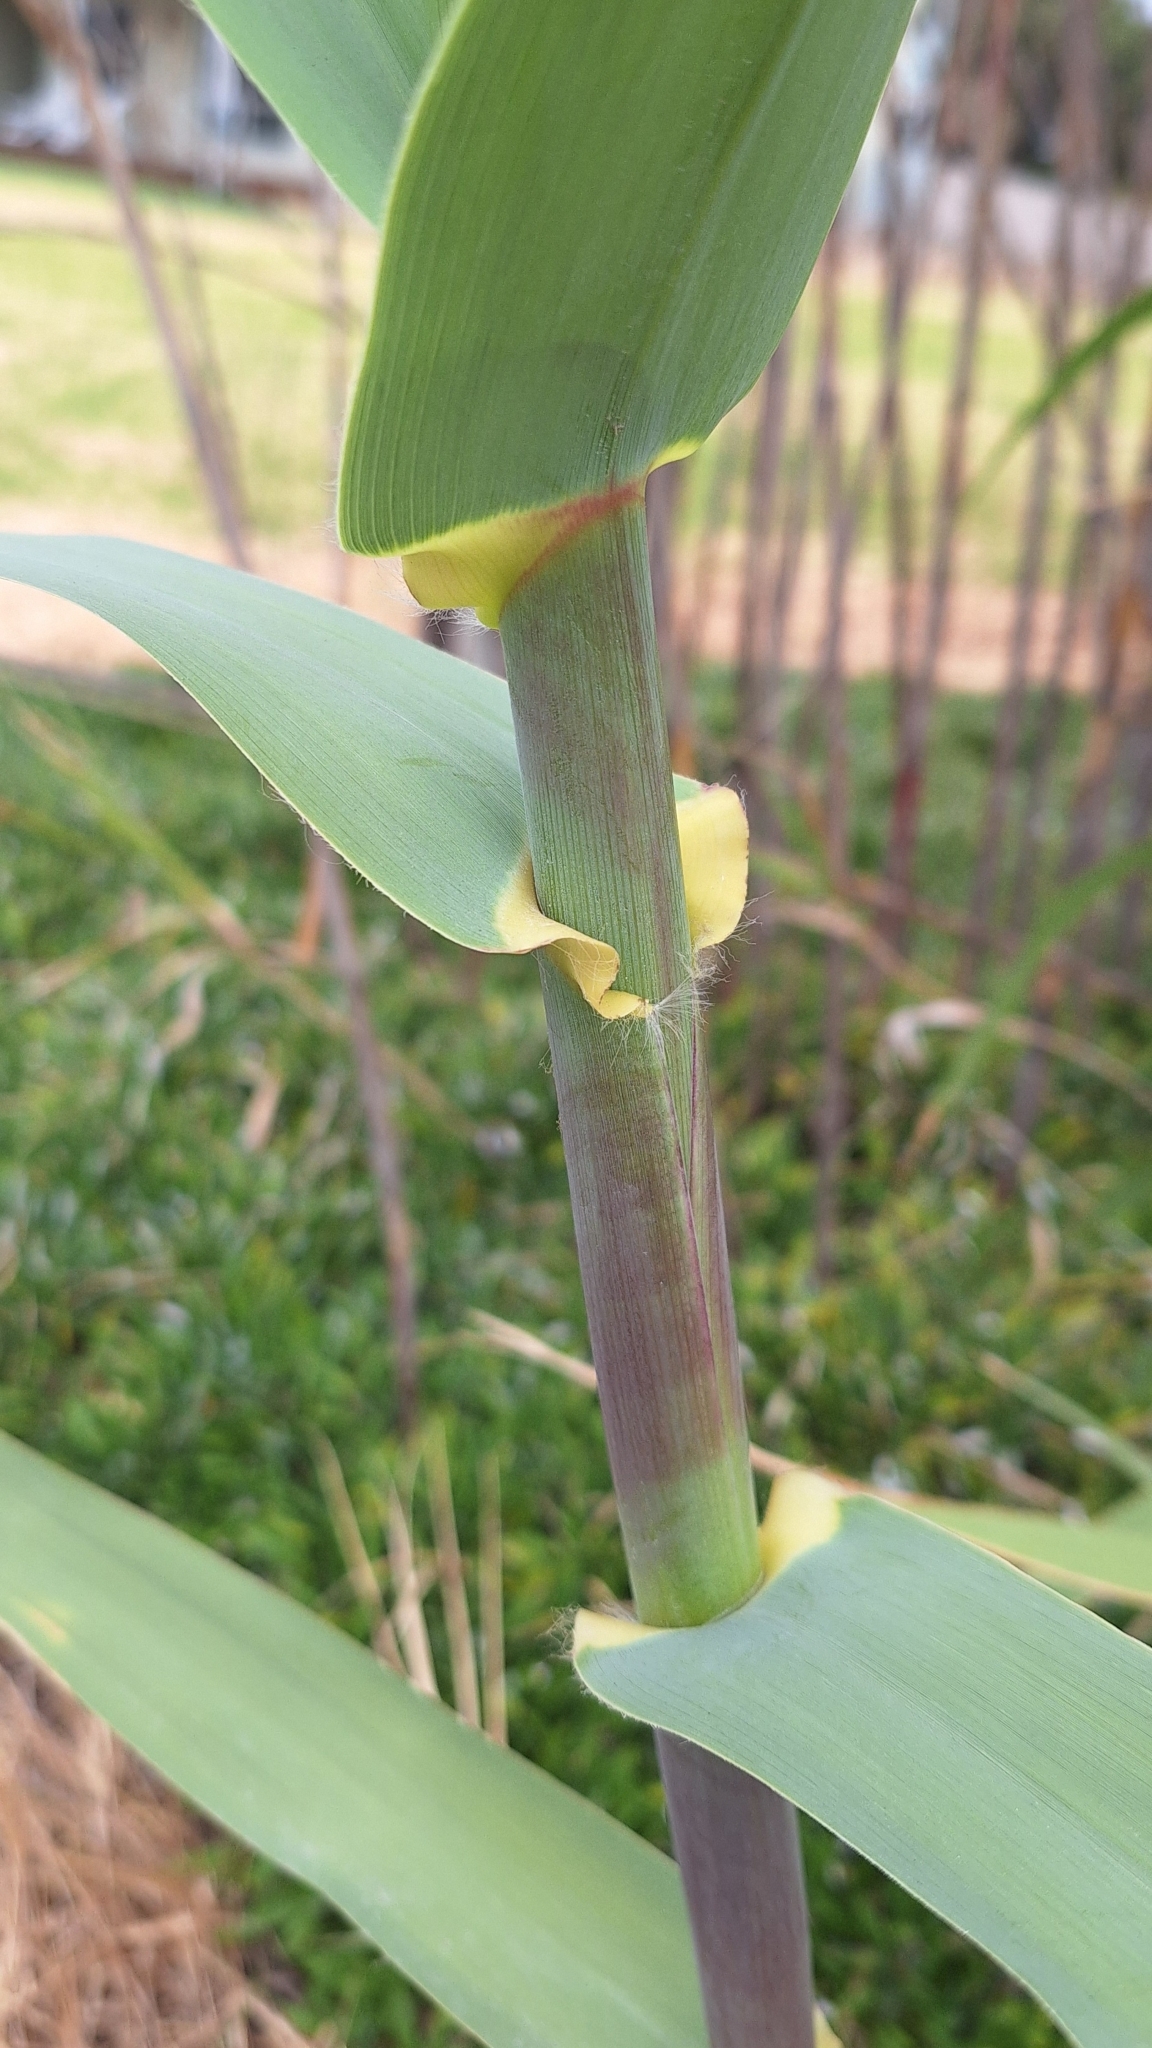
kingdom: Plantae
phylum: Tracheophyta
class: Liliopsida
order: Poales
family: Poaceae
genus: Arundo
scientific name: Arundo donax
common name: Giant reed
